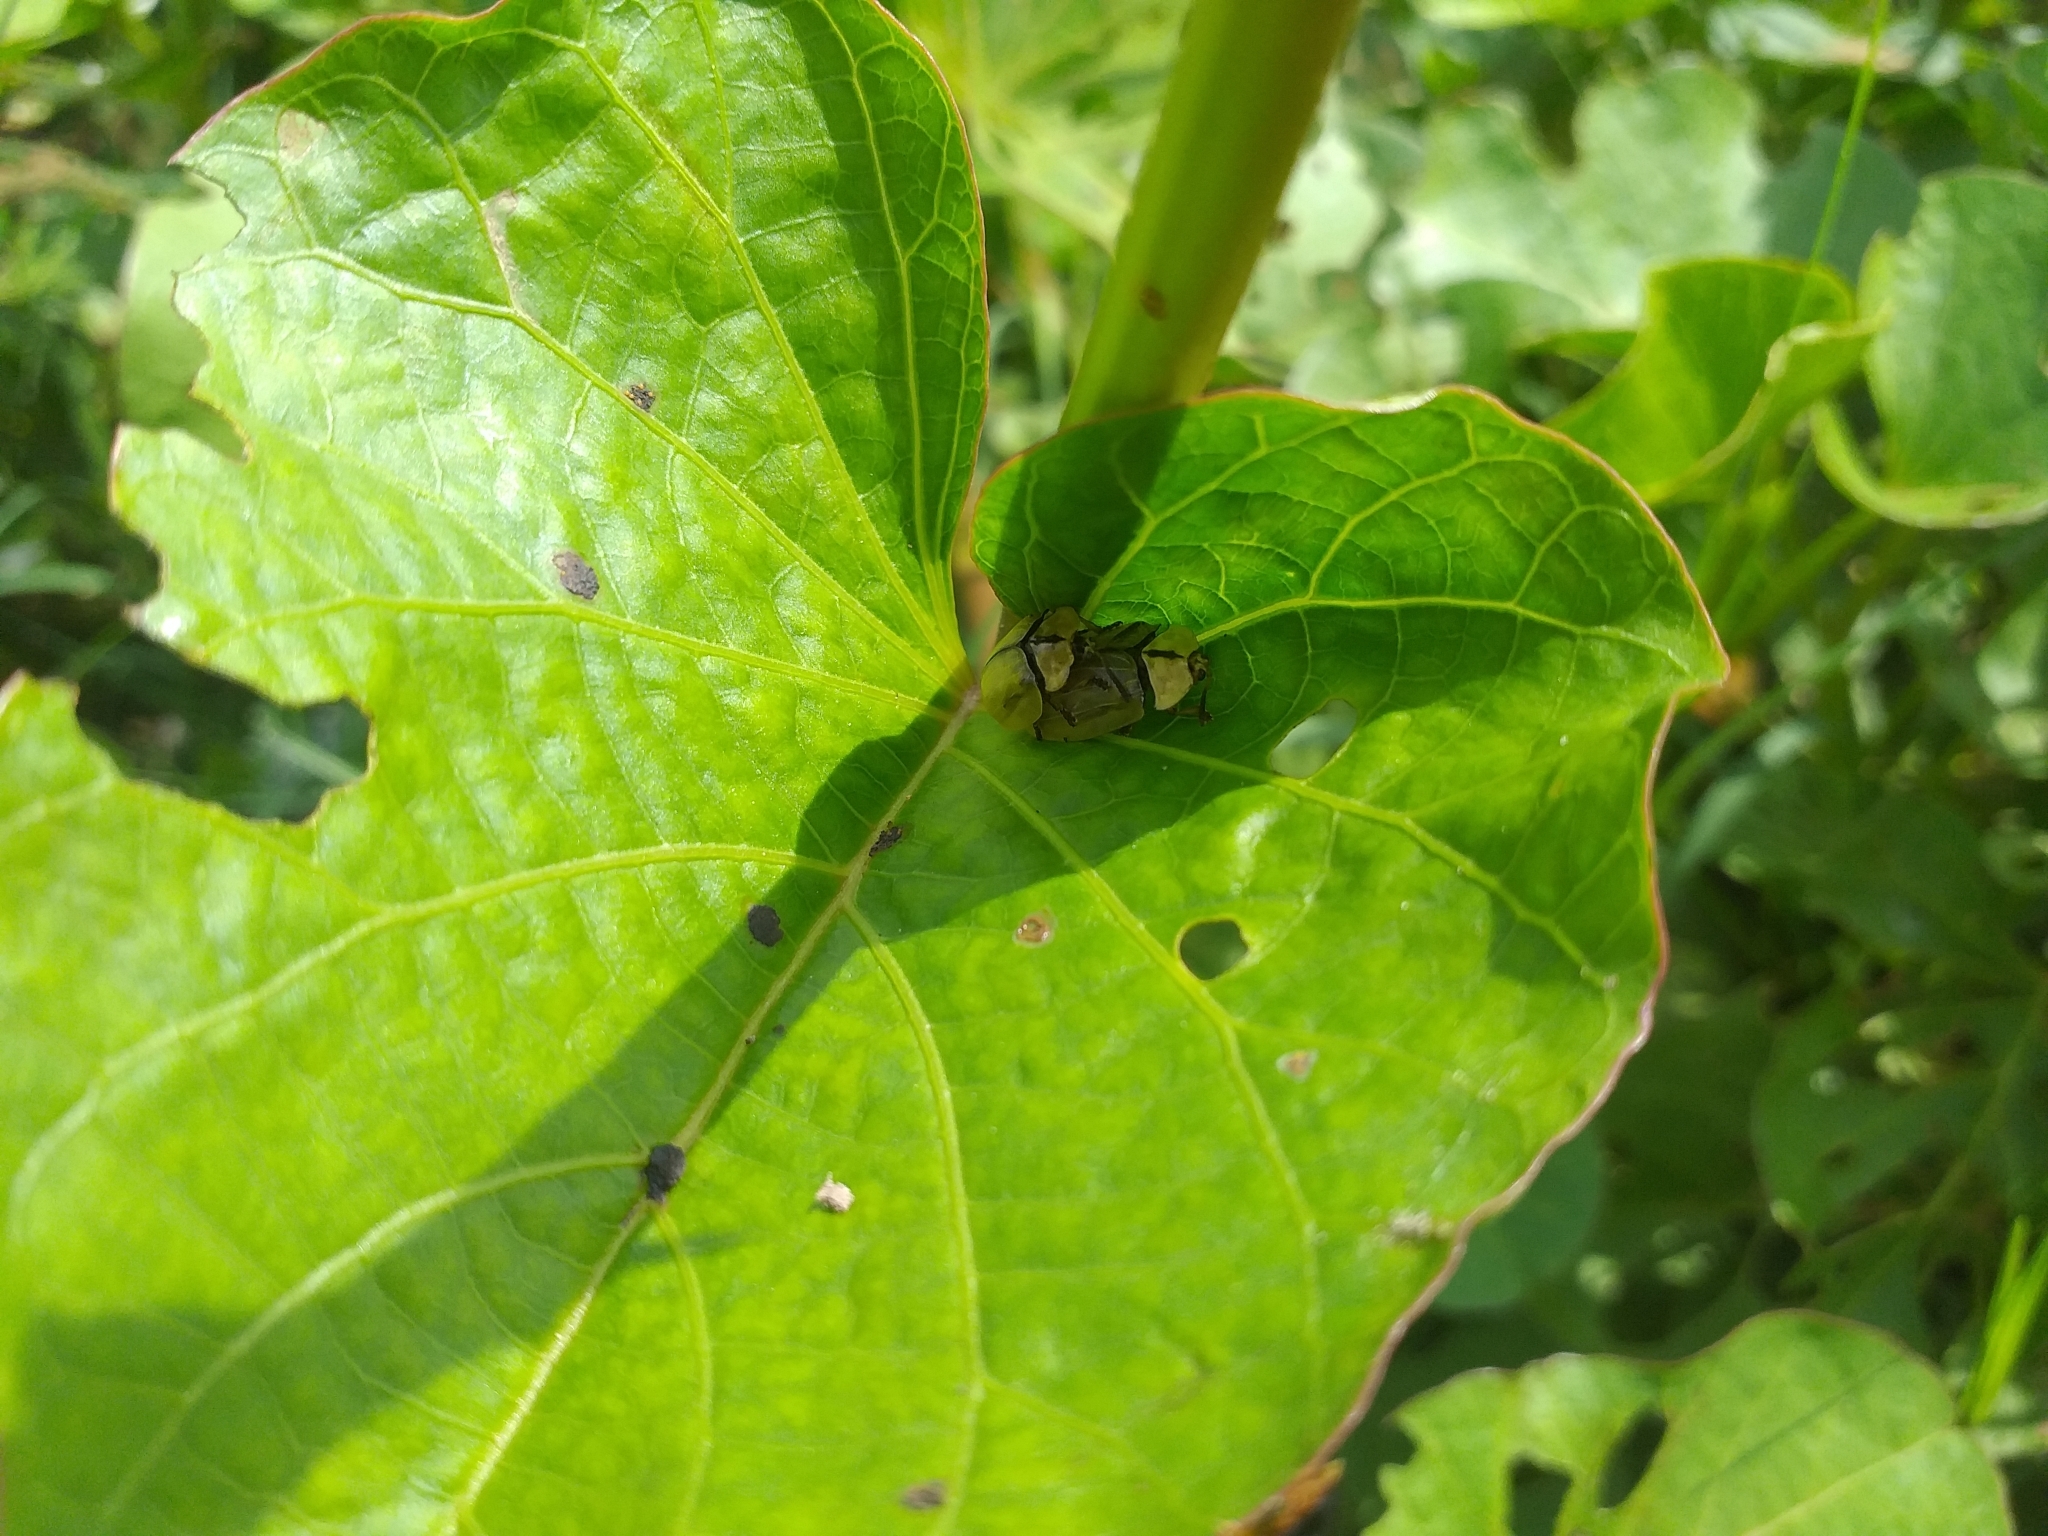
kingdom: Animalia
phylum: Arthropoda
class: Insecta
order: Coleoptera
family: Chrysomelidae
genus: Zatrephina
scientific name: Zatrephina lineata
